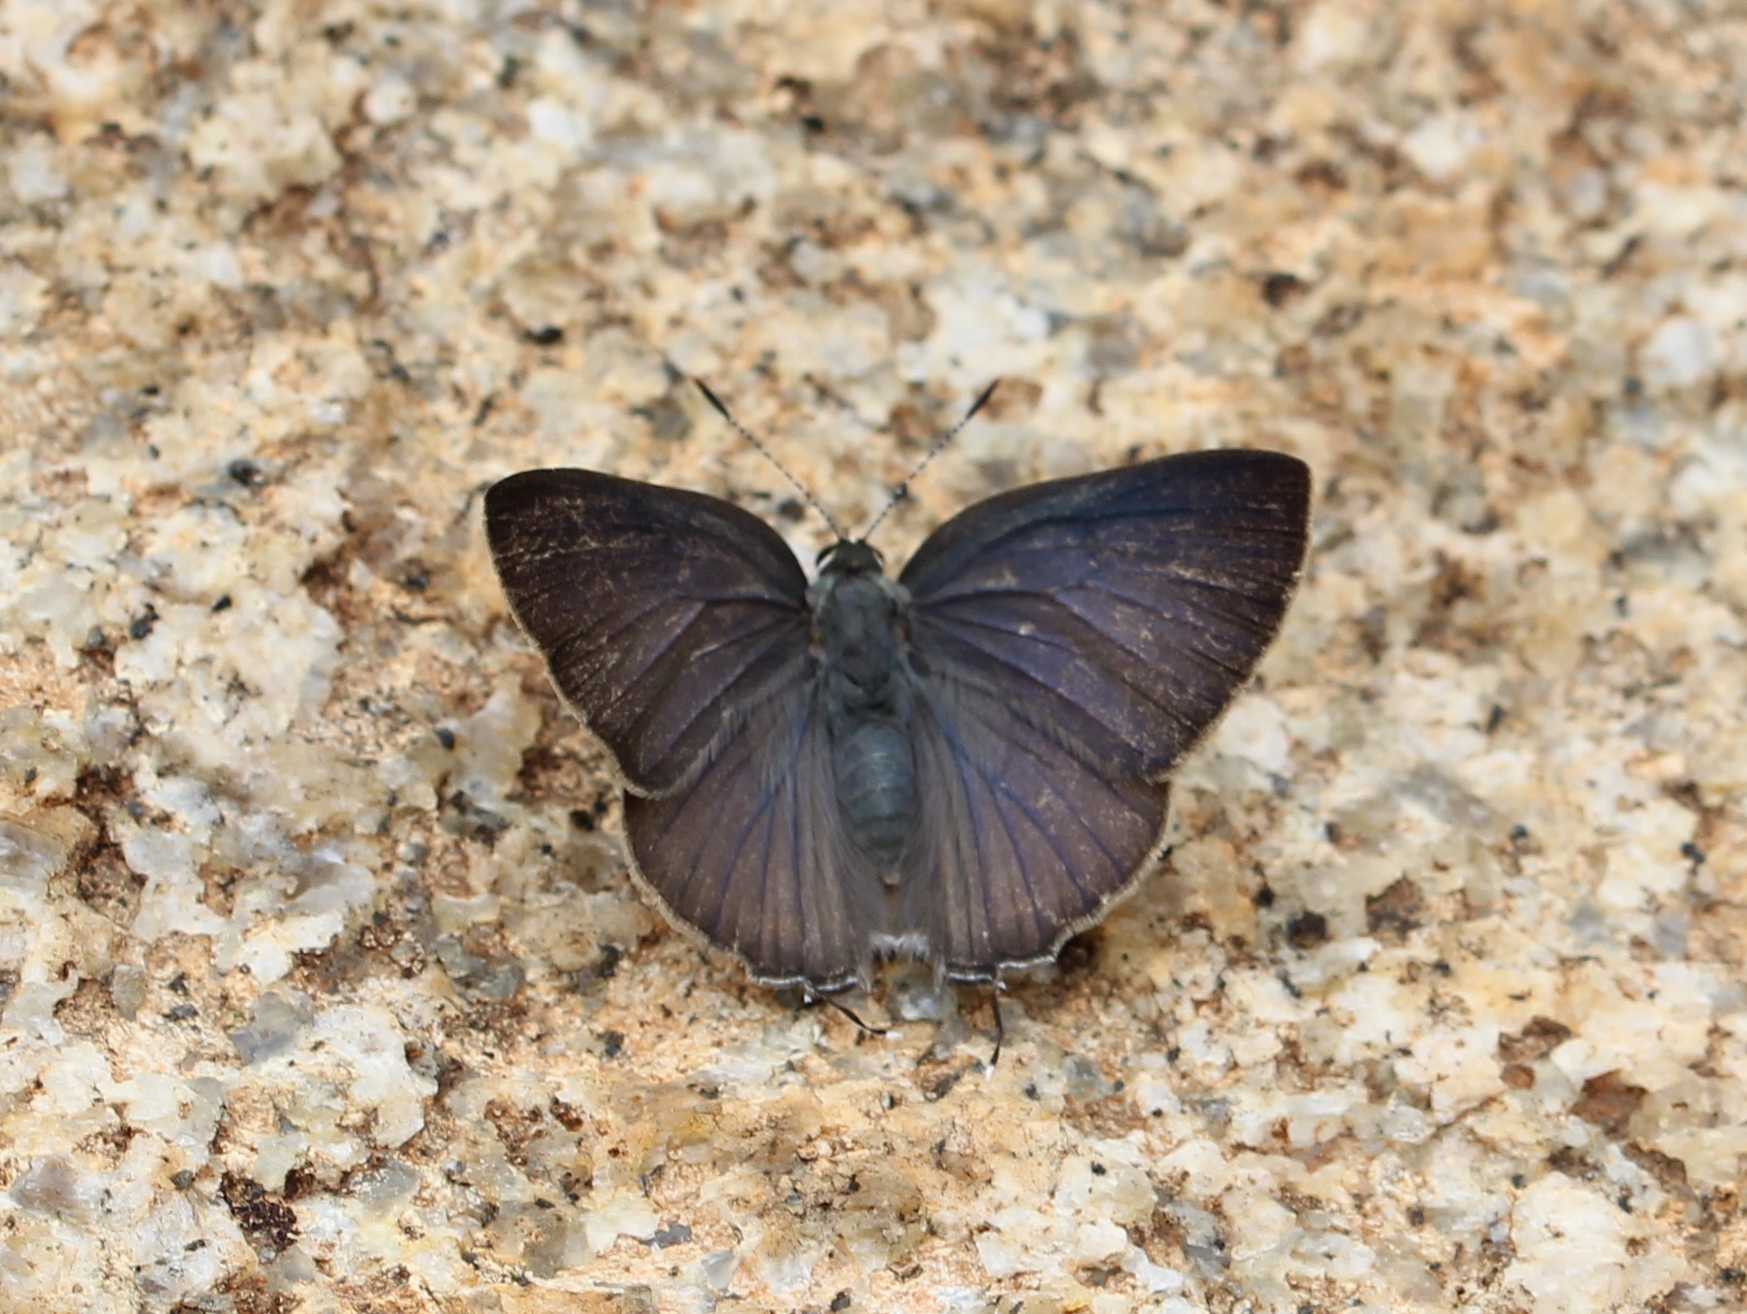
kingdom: Animalia
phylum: Arthropoda
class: Insecta
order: Lepidoptera
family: Lycaenidae
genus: Rapala
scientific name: Rapala manea
